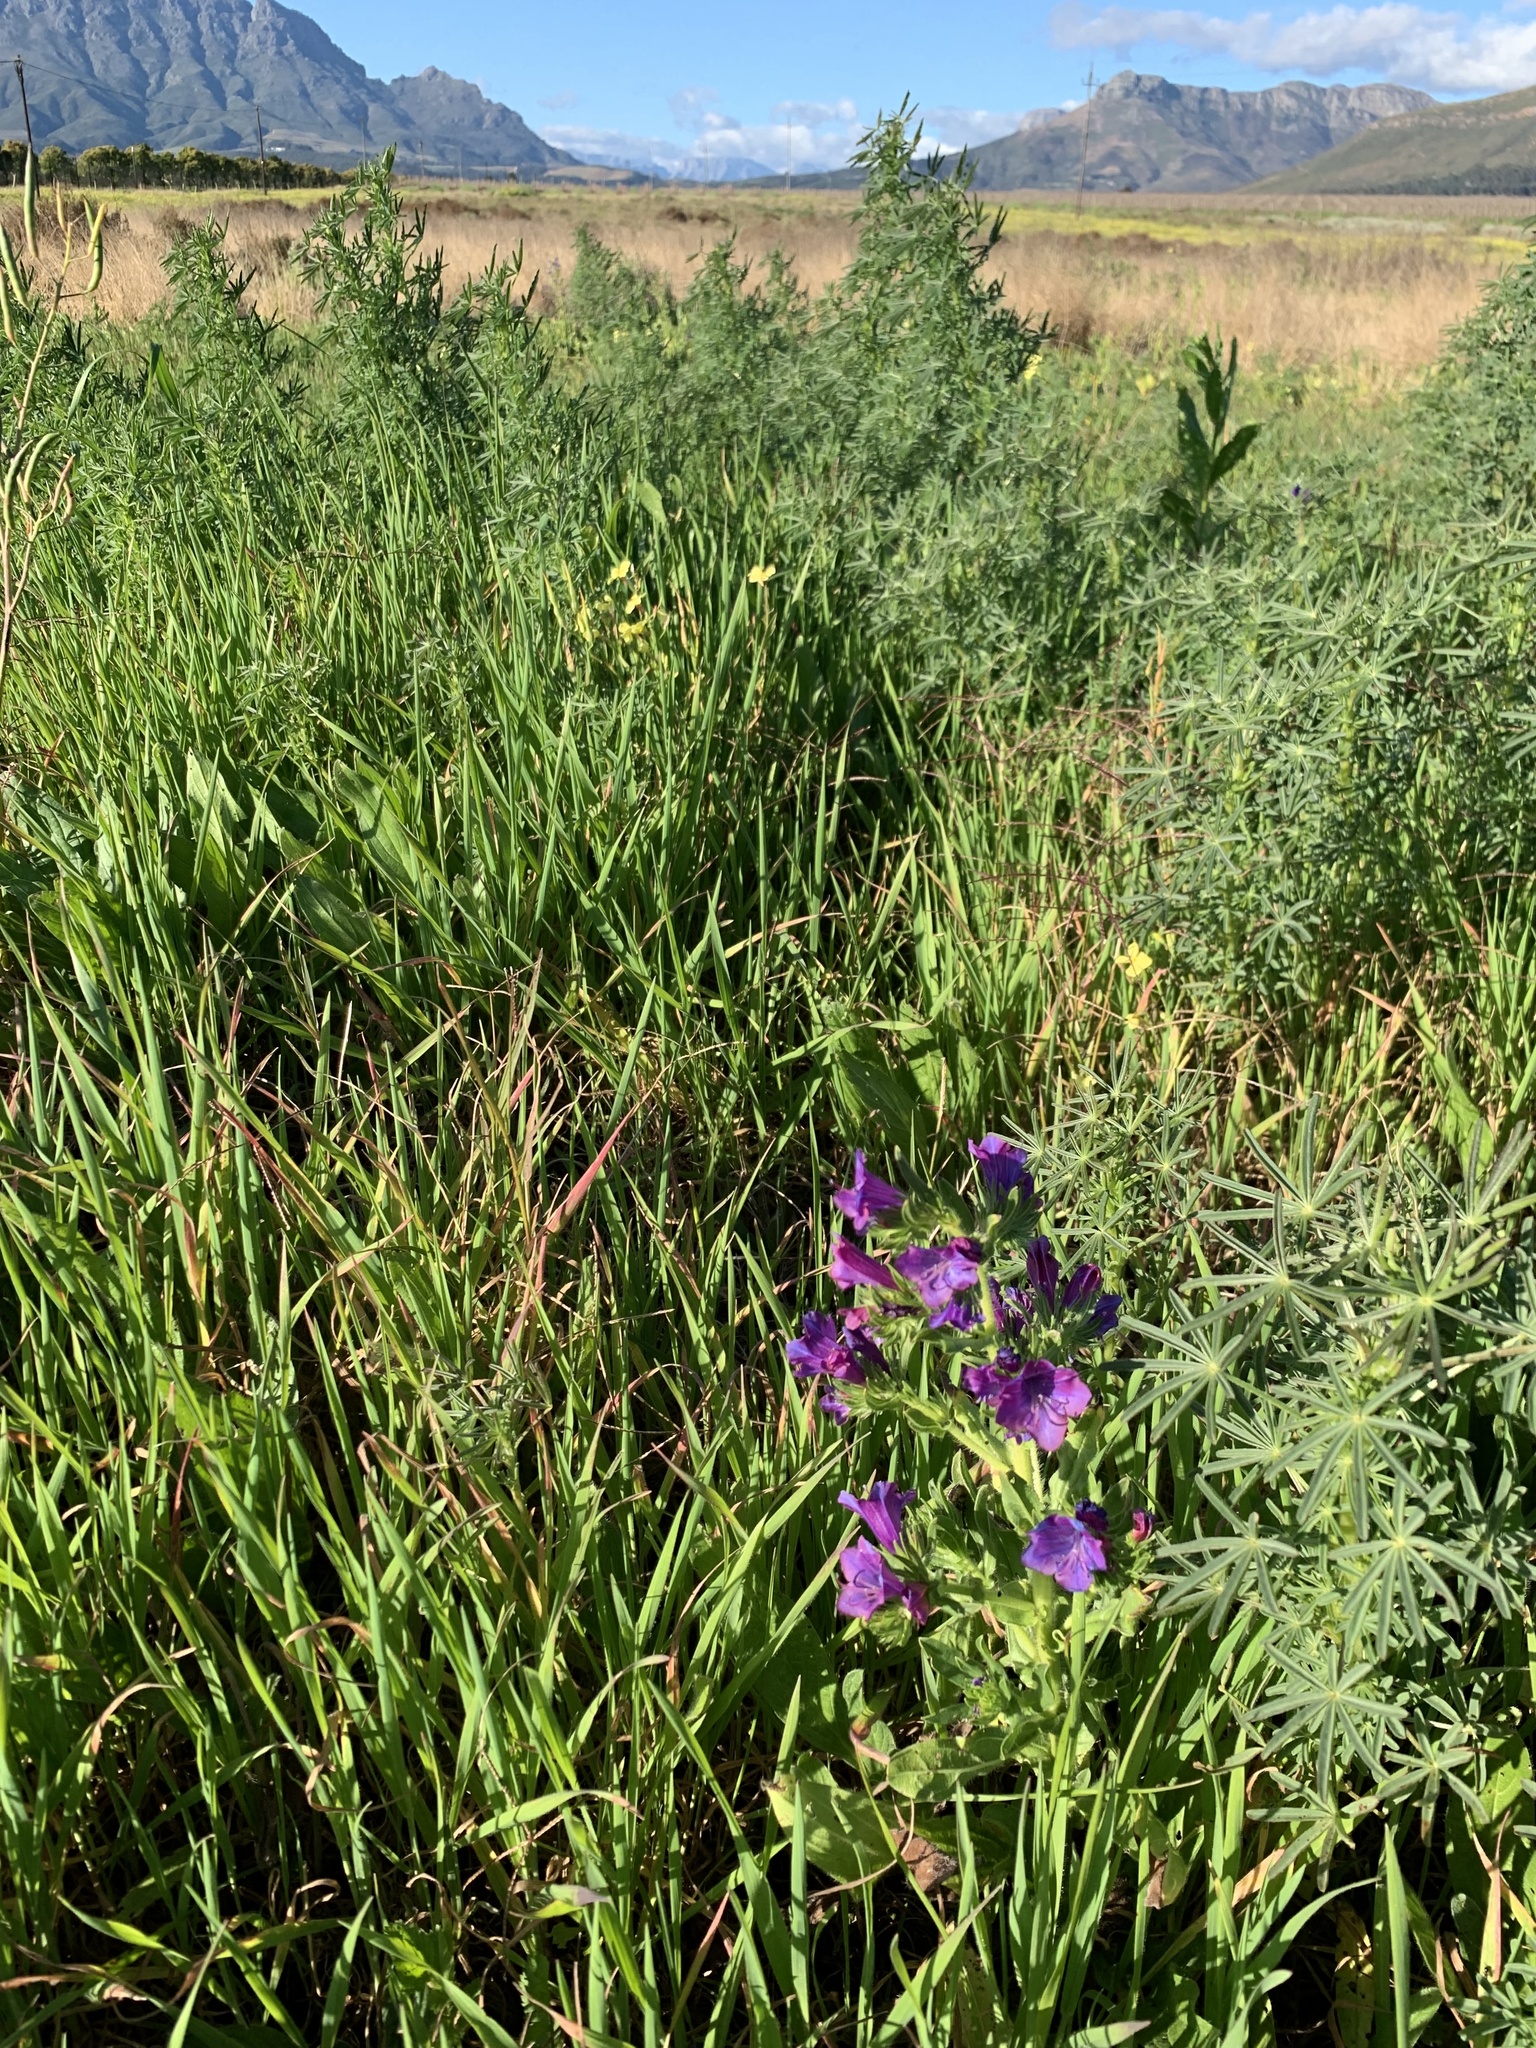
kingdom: Plantae
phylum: Tracheophyta
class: Magnoliopsida
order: Boraginales
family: Boraginaceae
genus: Echium
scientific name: Echium plantagineum
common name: Purple viper's-bugloss
